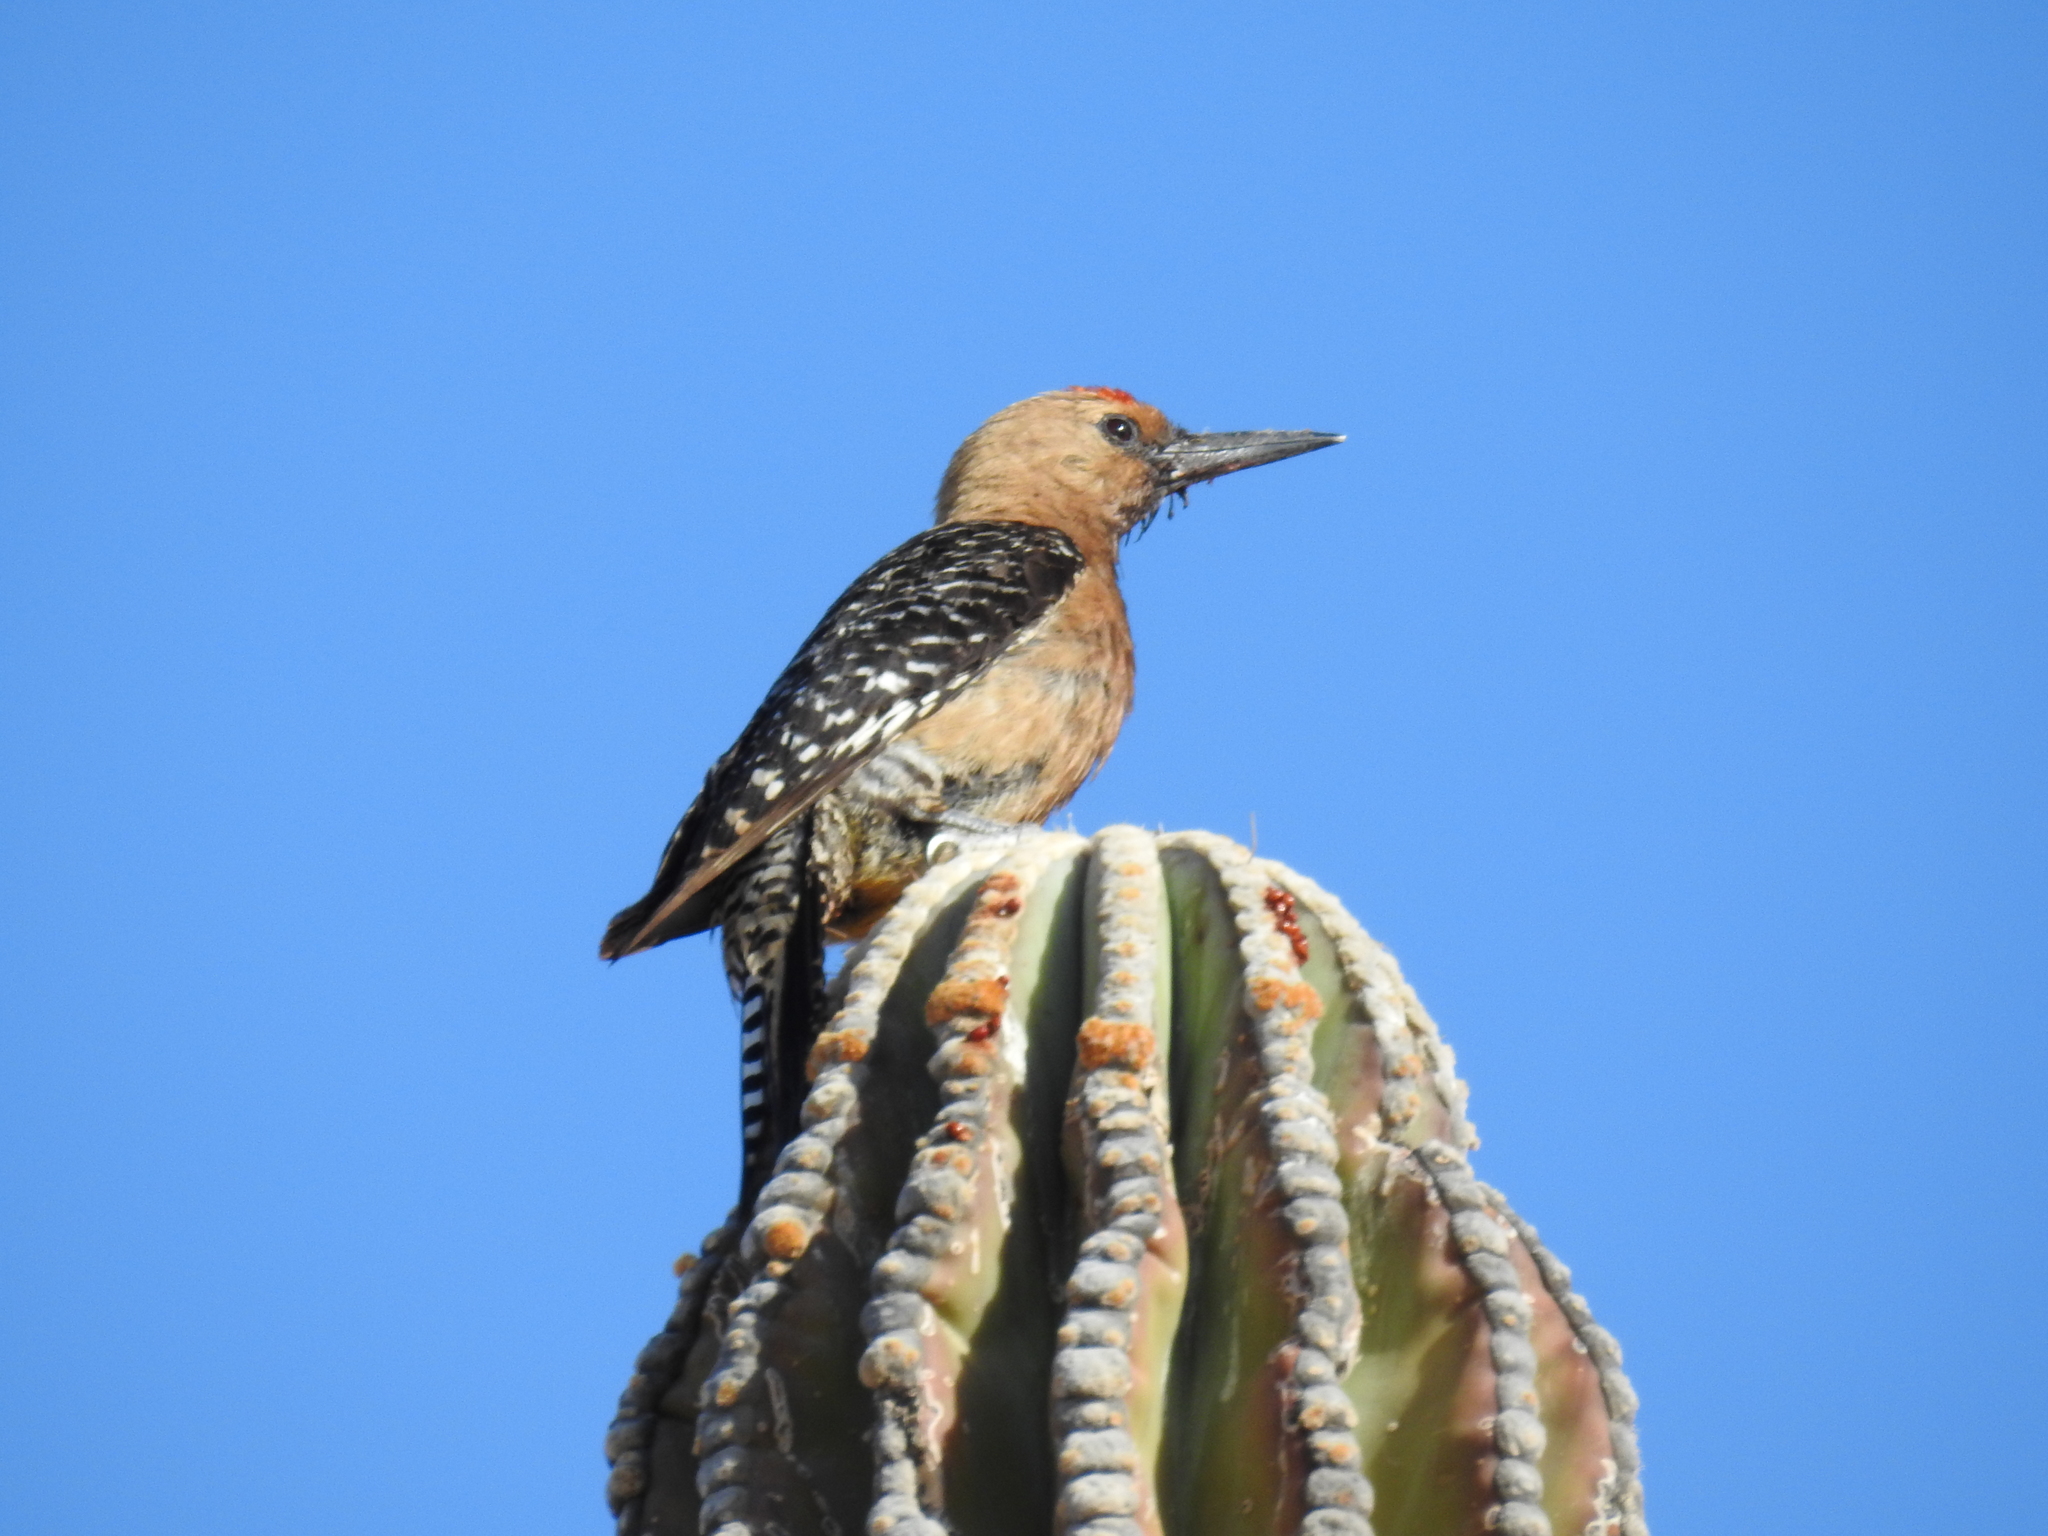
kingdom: Animalia
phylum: Chordata
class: Aves
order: Piciformes
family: Picidae
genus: Melanerpes
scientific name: Melanerpes uropygialis
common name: Gila woodpecker
